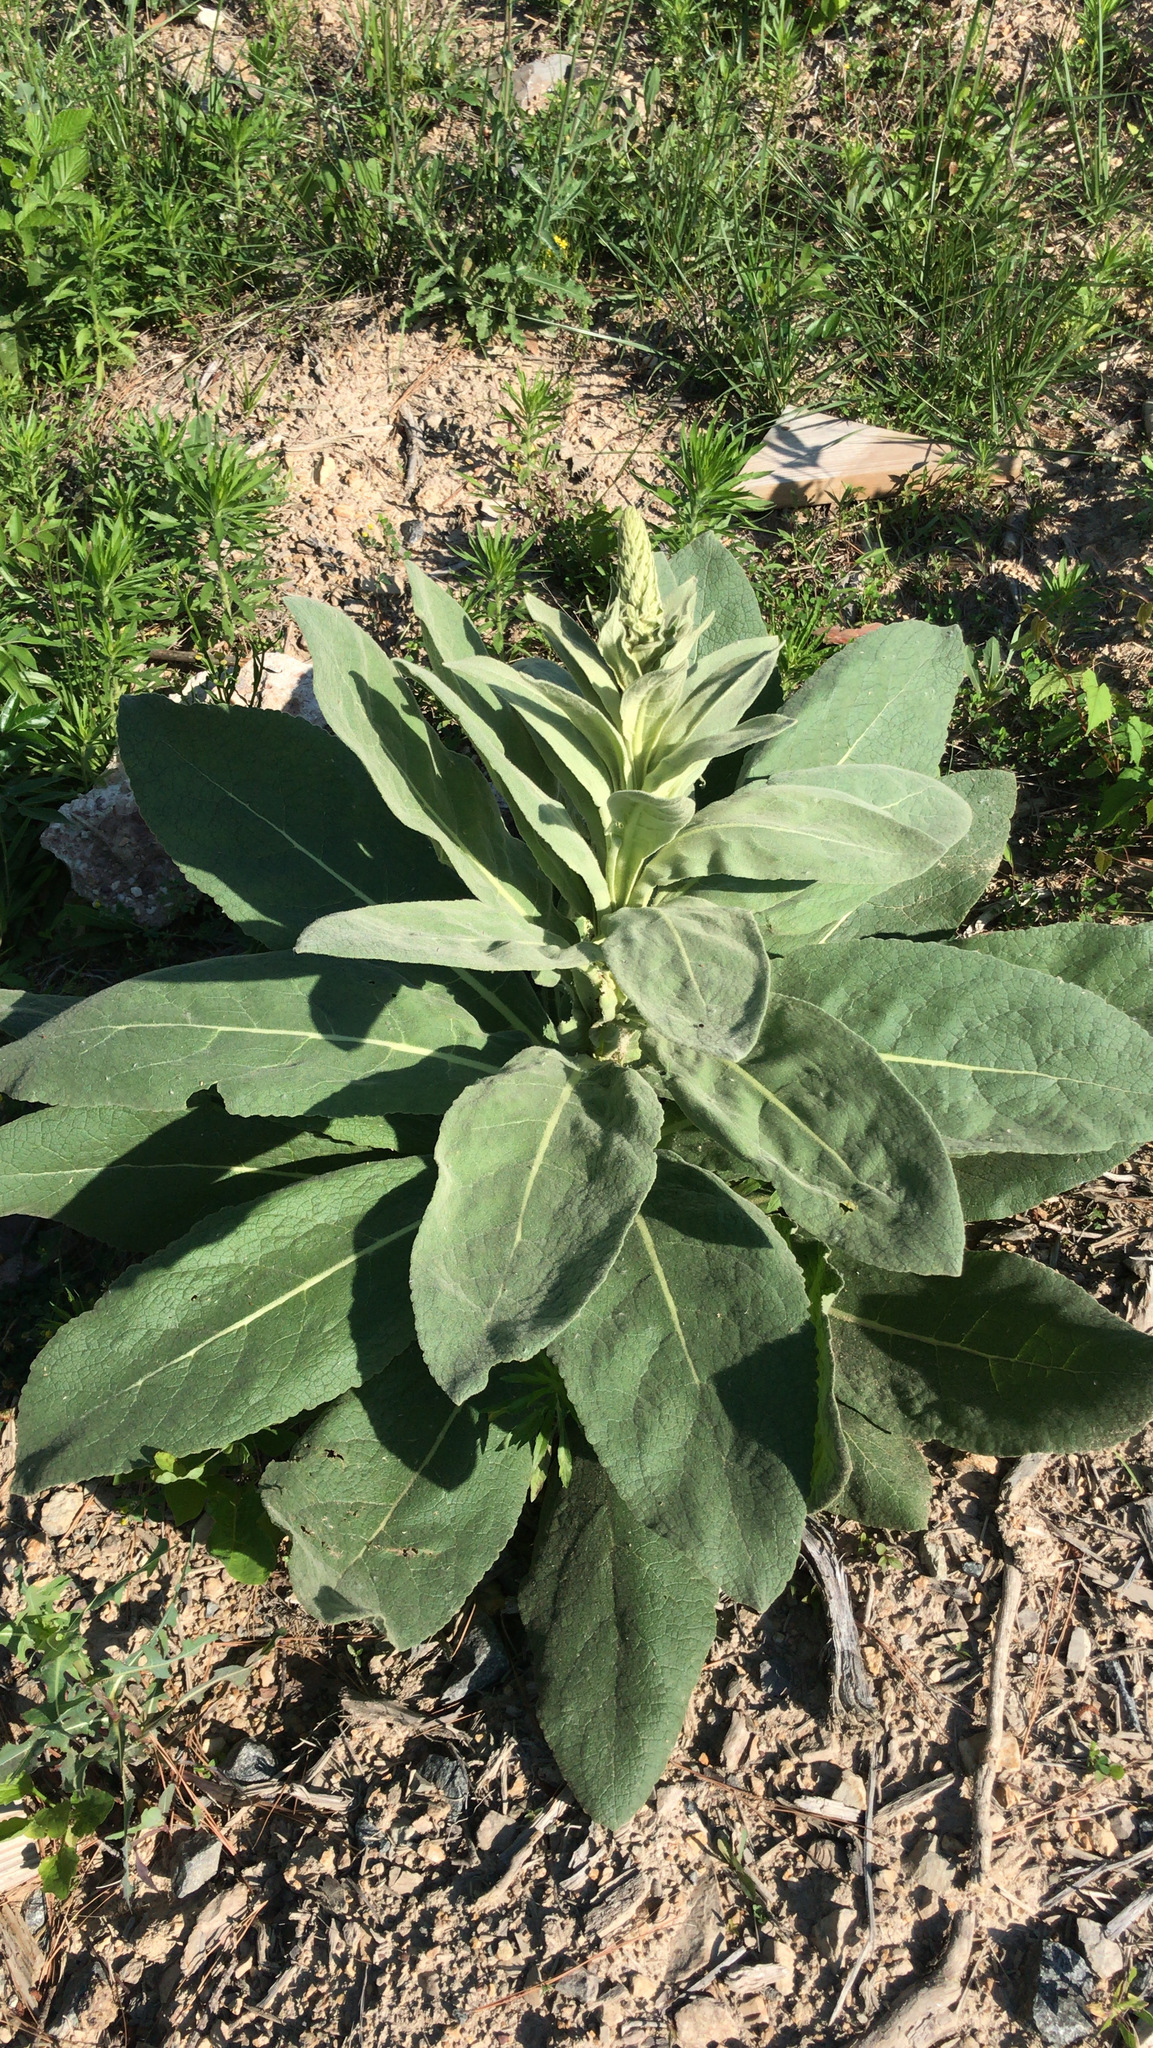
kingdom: Plantae
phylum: Tracheophyta
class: Magnoliopsida
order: Lamiales
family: Scrophulariaceae
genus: Verbascum
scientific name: Verbascum thapsus
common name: Common mullein
